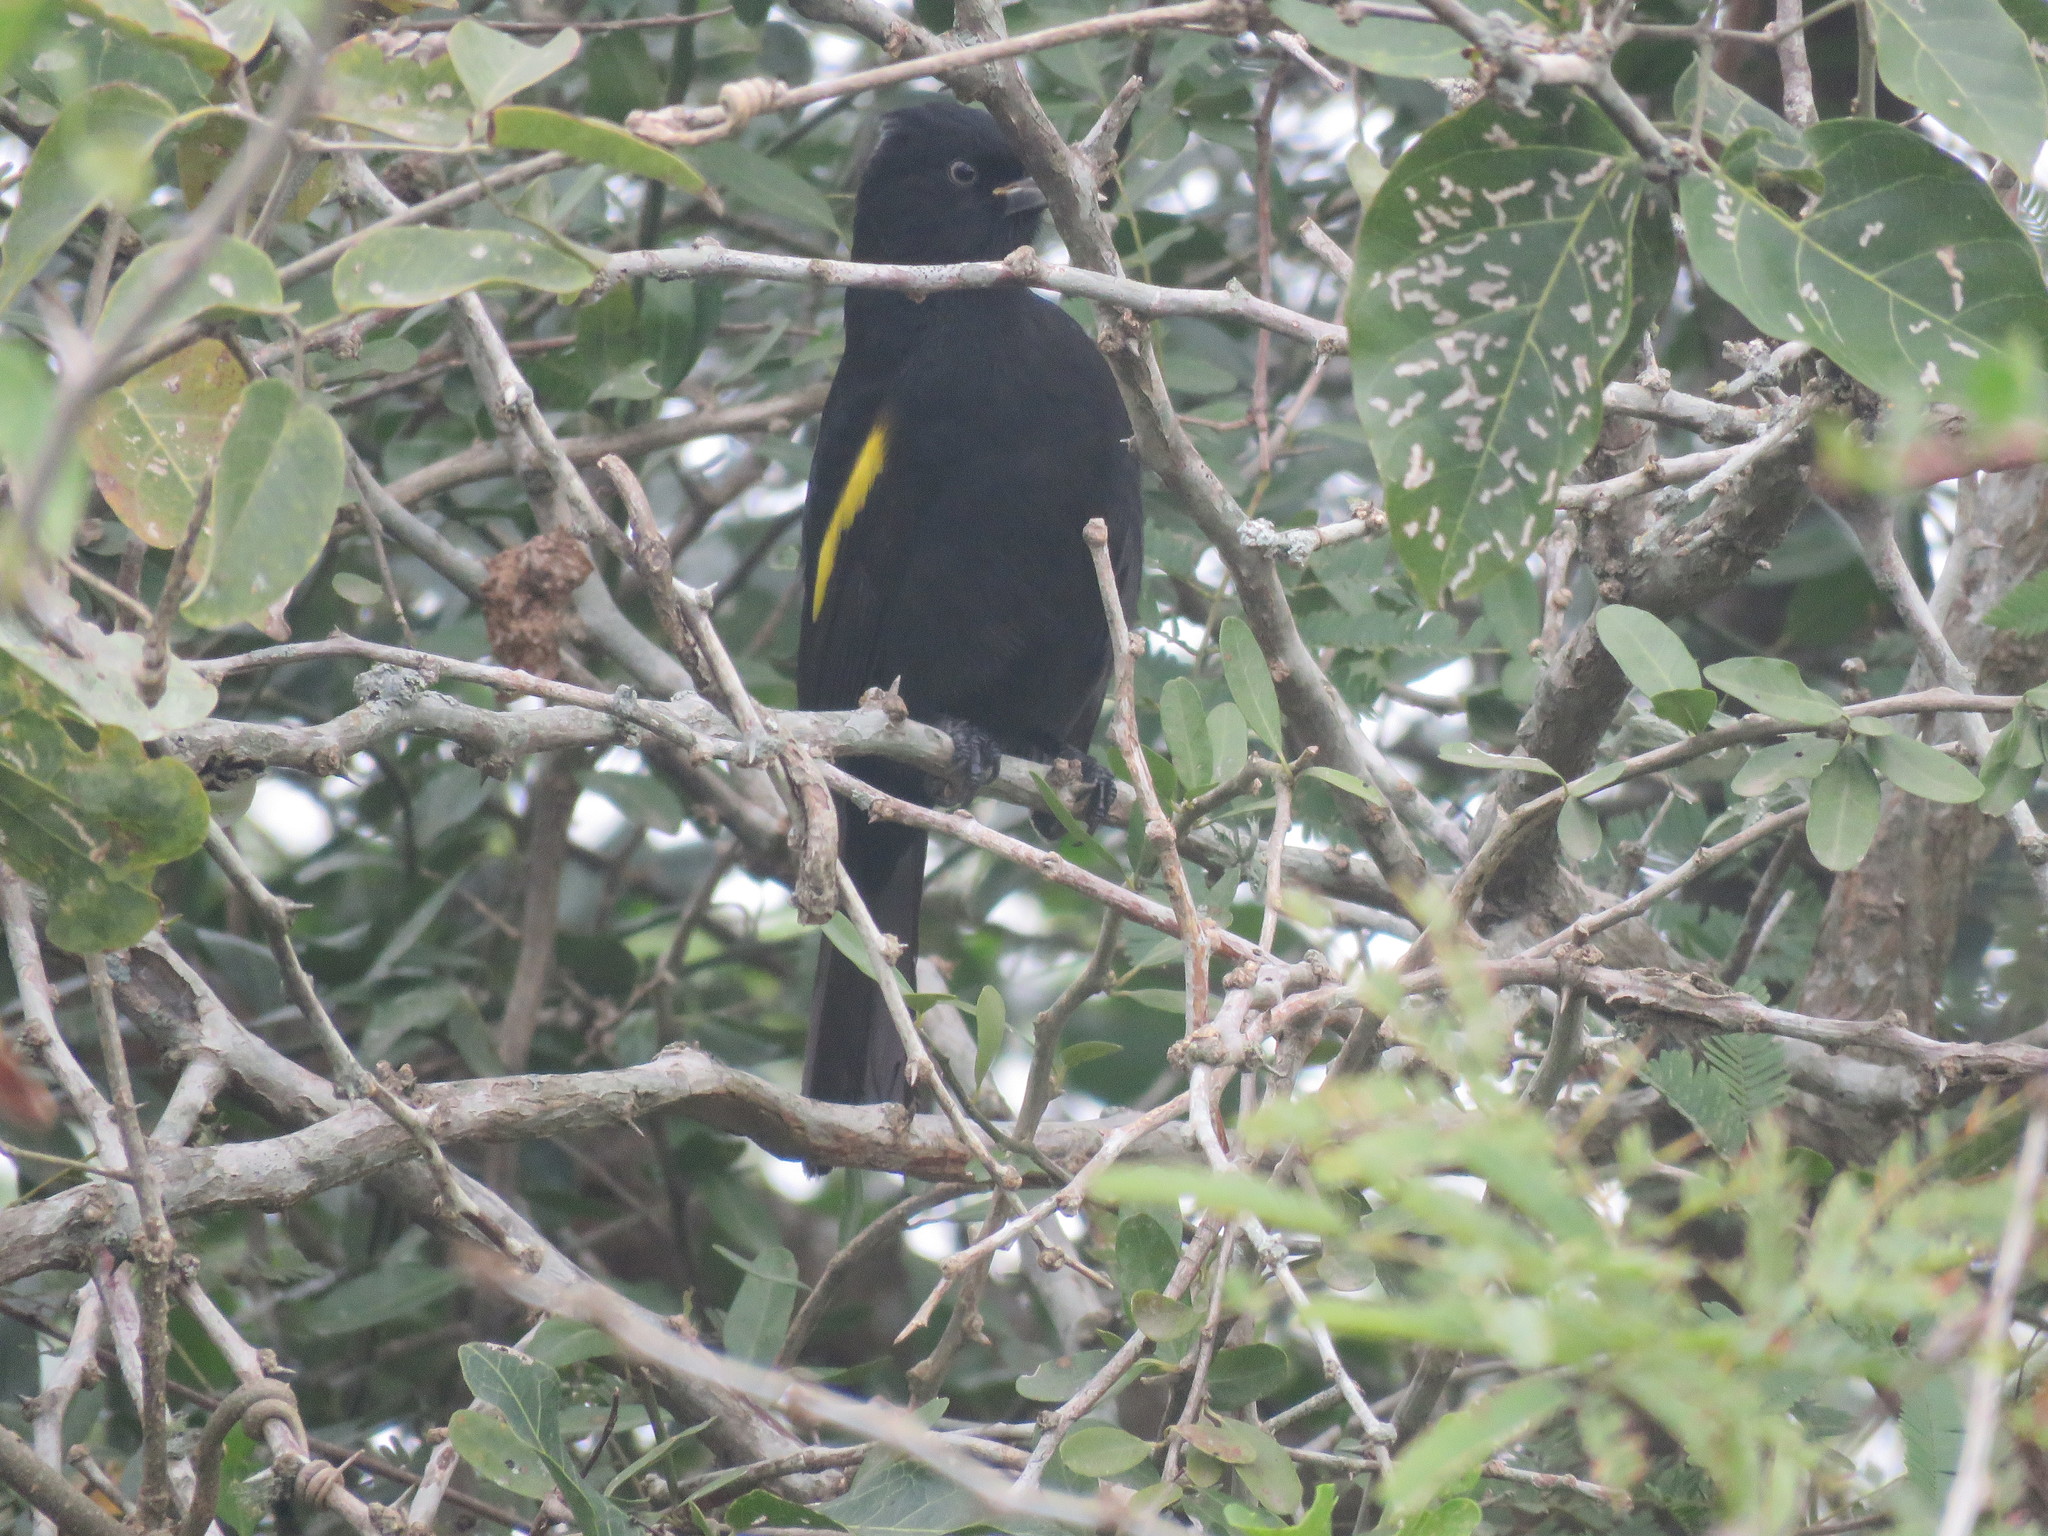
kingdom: Animalia
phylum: Chordata
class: Aves
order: Passeriformes
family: Icteridae
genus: Cacicus
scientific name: Cacicus chrysopterus
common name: Golden-winged cacique
